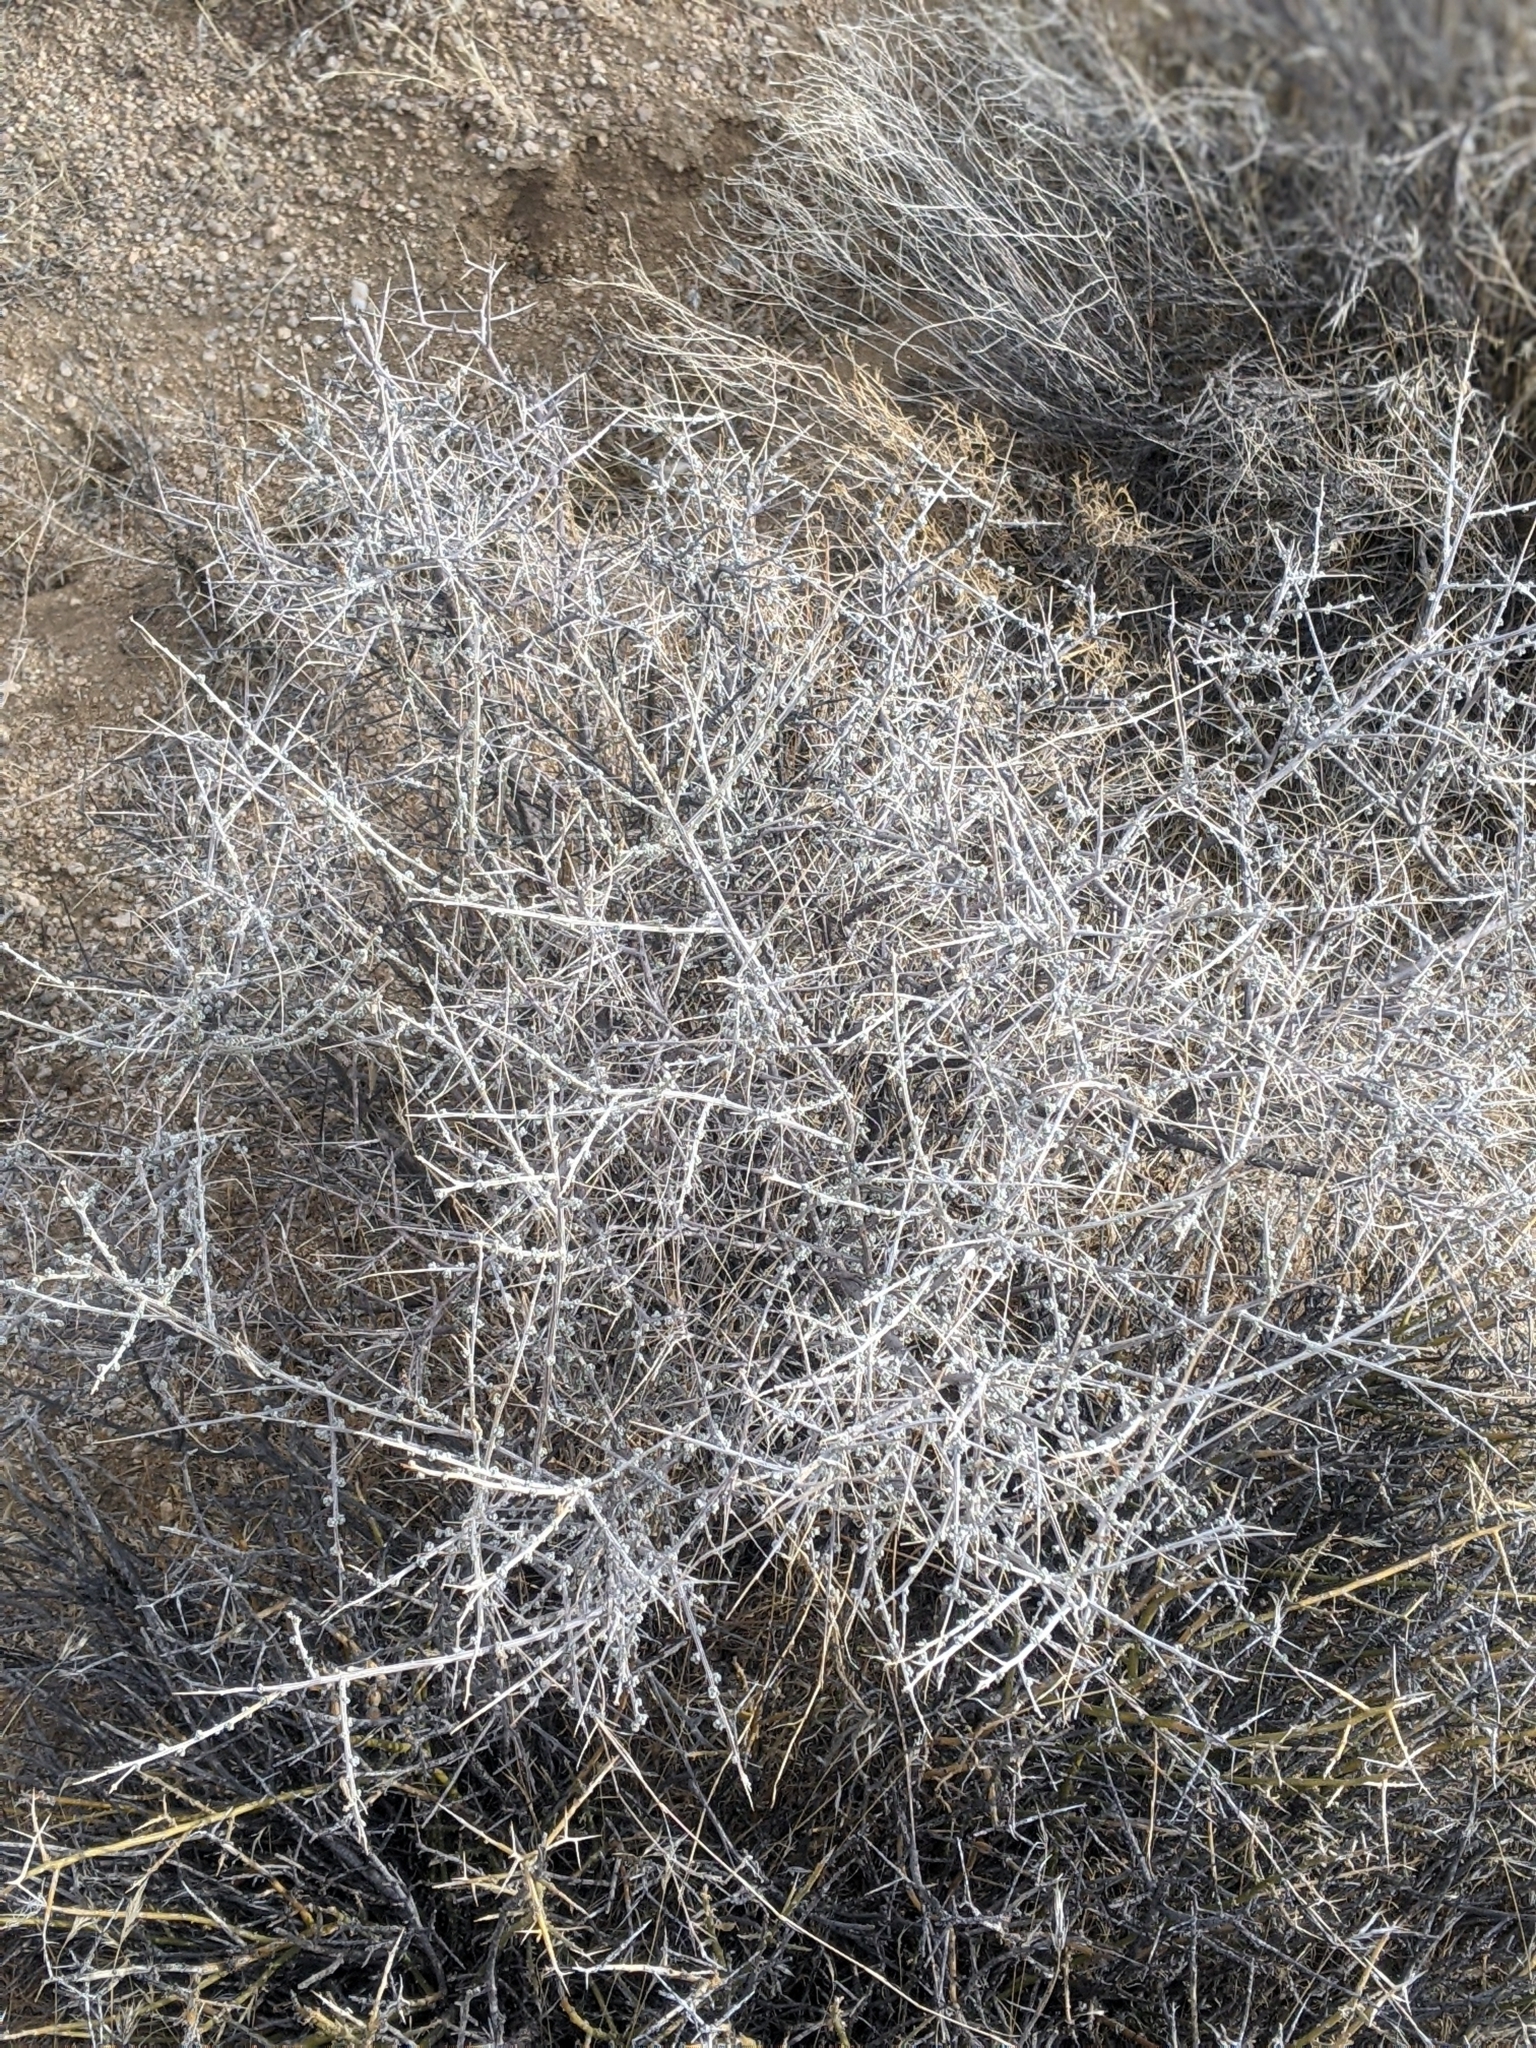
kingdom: Plantae
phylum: Tracheophyta
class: Magnoliopsida
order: Caryophyllales
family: Amaranthaceae
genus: Grayia
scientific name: Grayia spinosa
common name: Spiny hopsage
